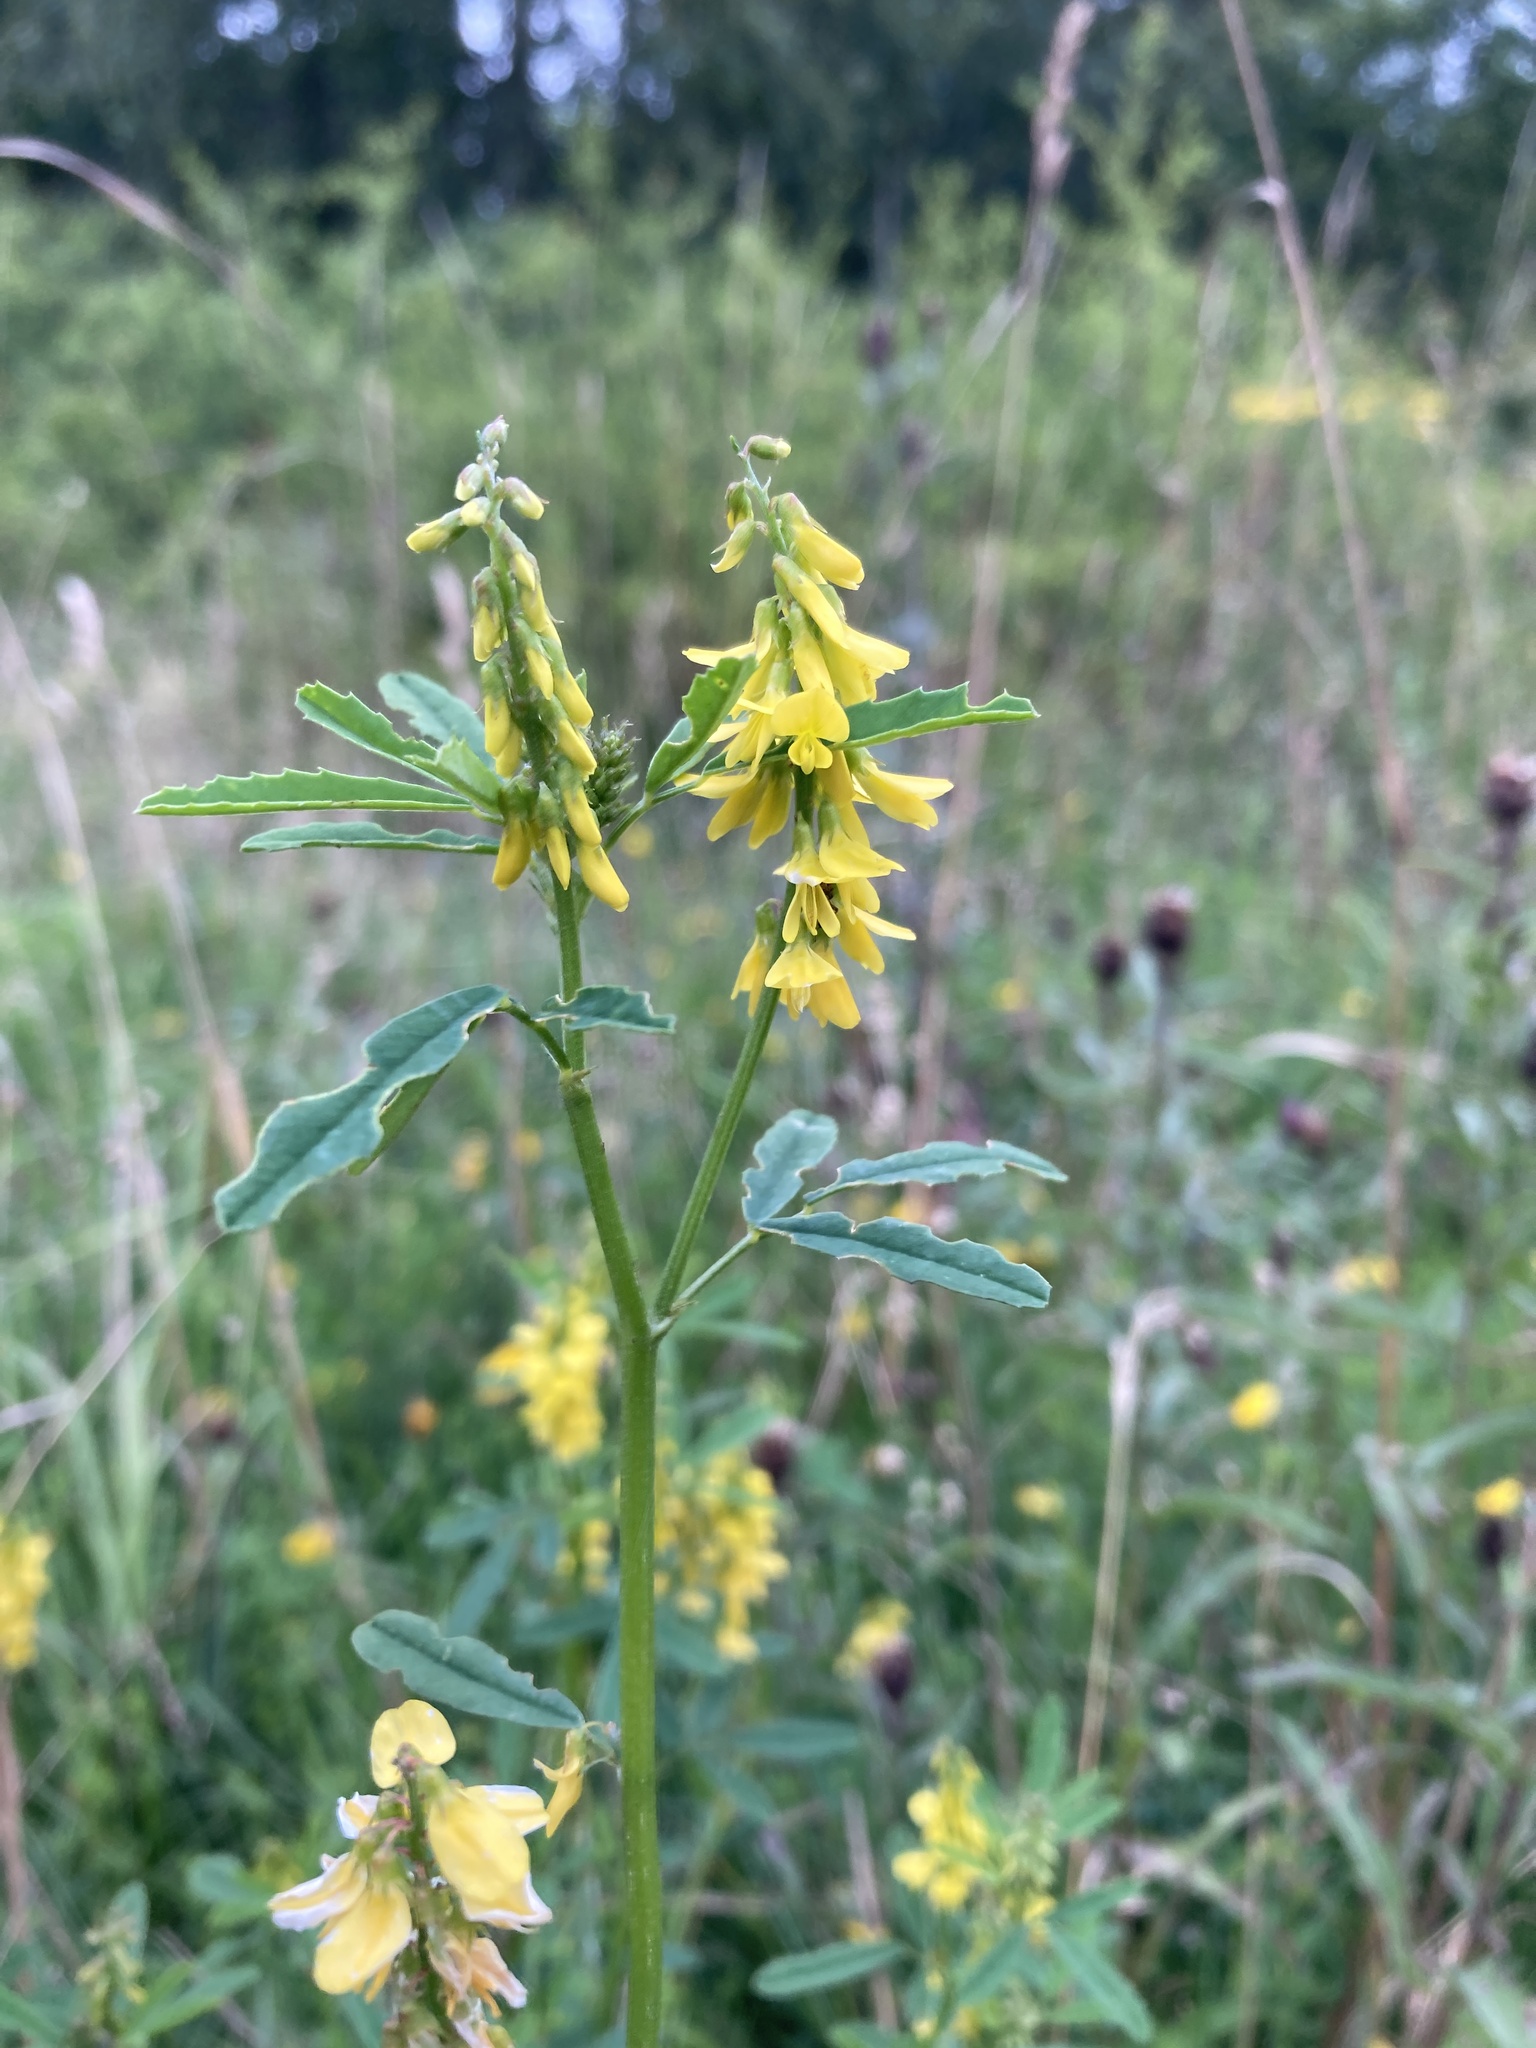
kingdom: Plantae
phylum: Tracheophyta
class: Magnoliopsida
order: Fabales
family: Fabaceae
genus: Melilotus
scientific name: Melilotus officinalis
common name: Sweetclover
